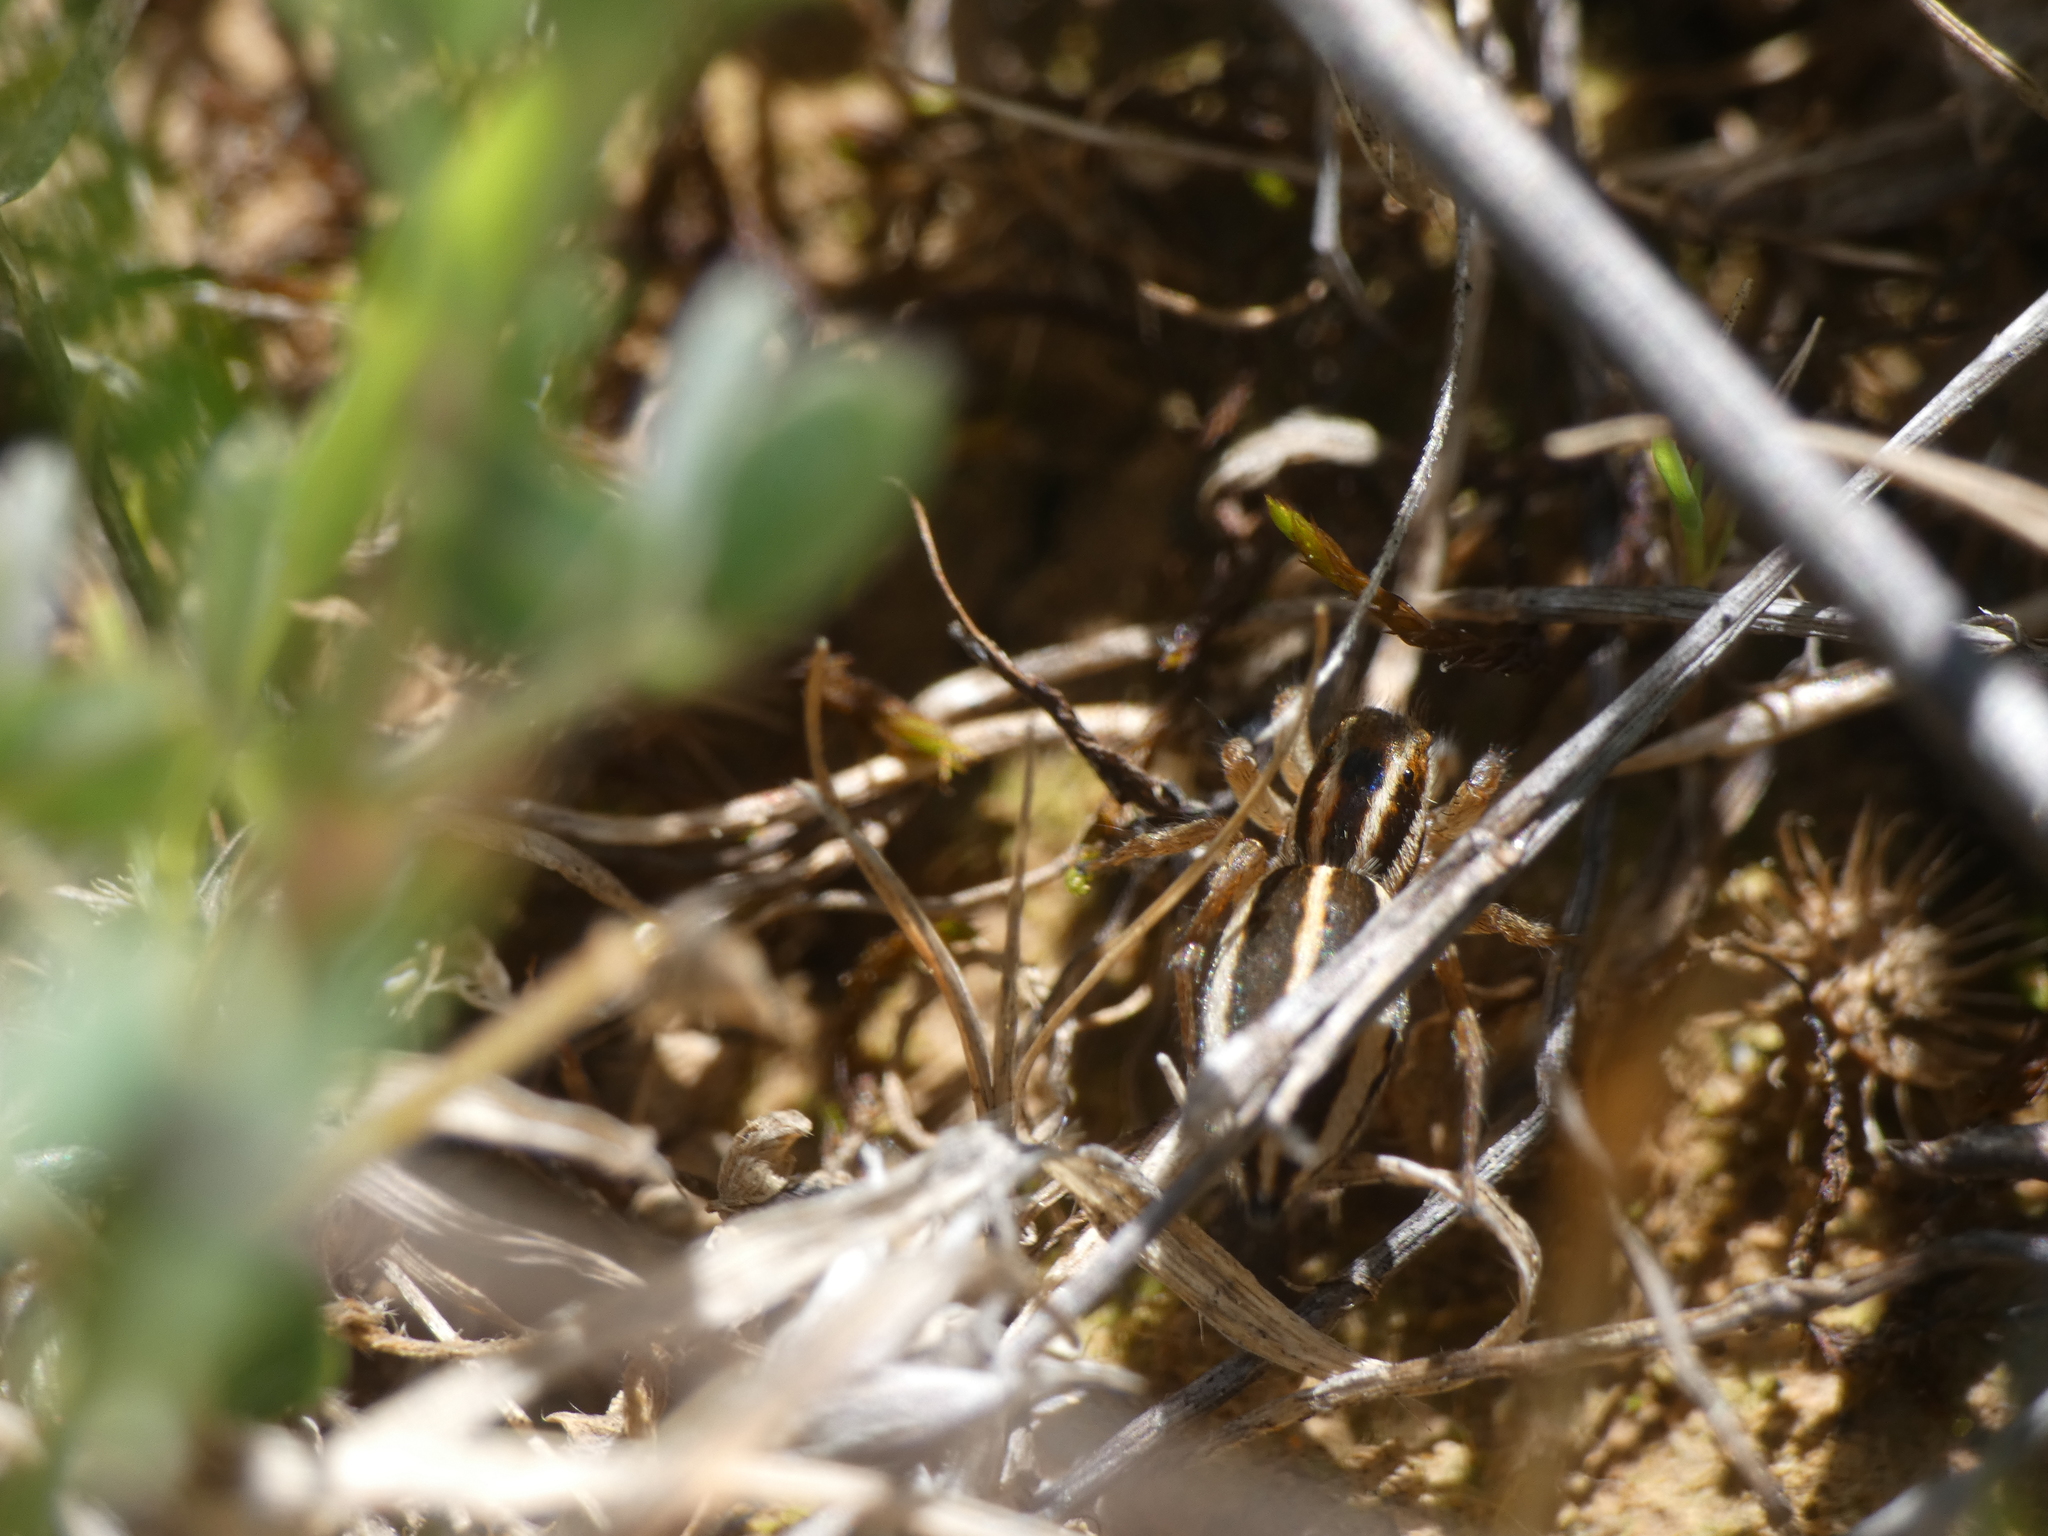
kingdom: Animalia
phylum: Arthropoda
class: Arachnida
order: Araneae
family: Salticidae
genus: Phlegra
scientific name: Phlegra bresnieri
